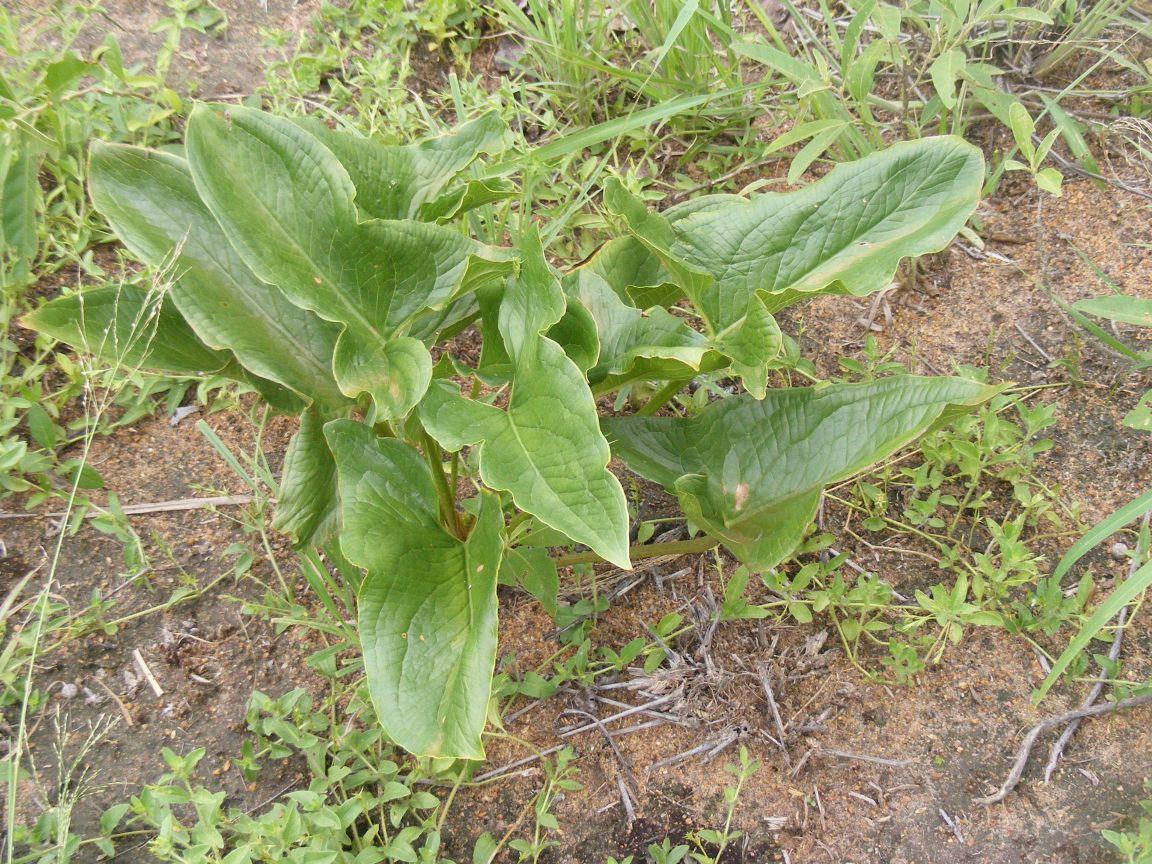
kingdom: Plantae
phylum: Tracheophyta
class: Liliopsida
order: Alismatales
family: Araceae
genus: Stylochaeton
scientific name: Stylochaeton natalensis
